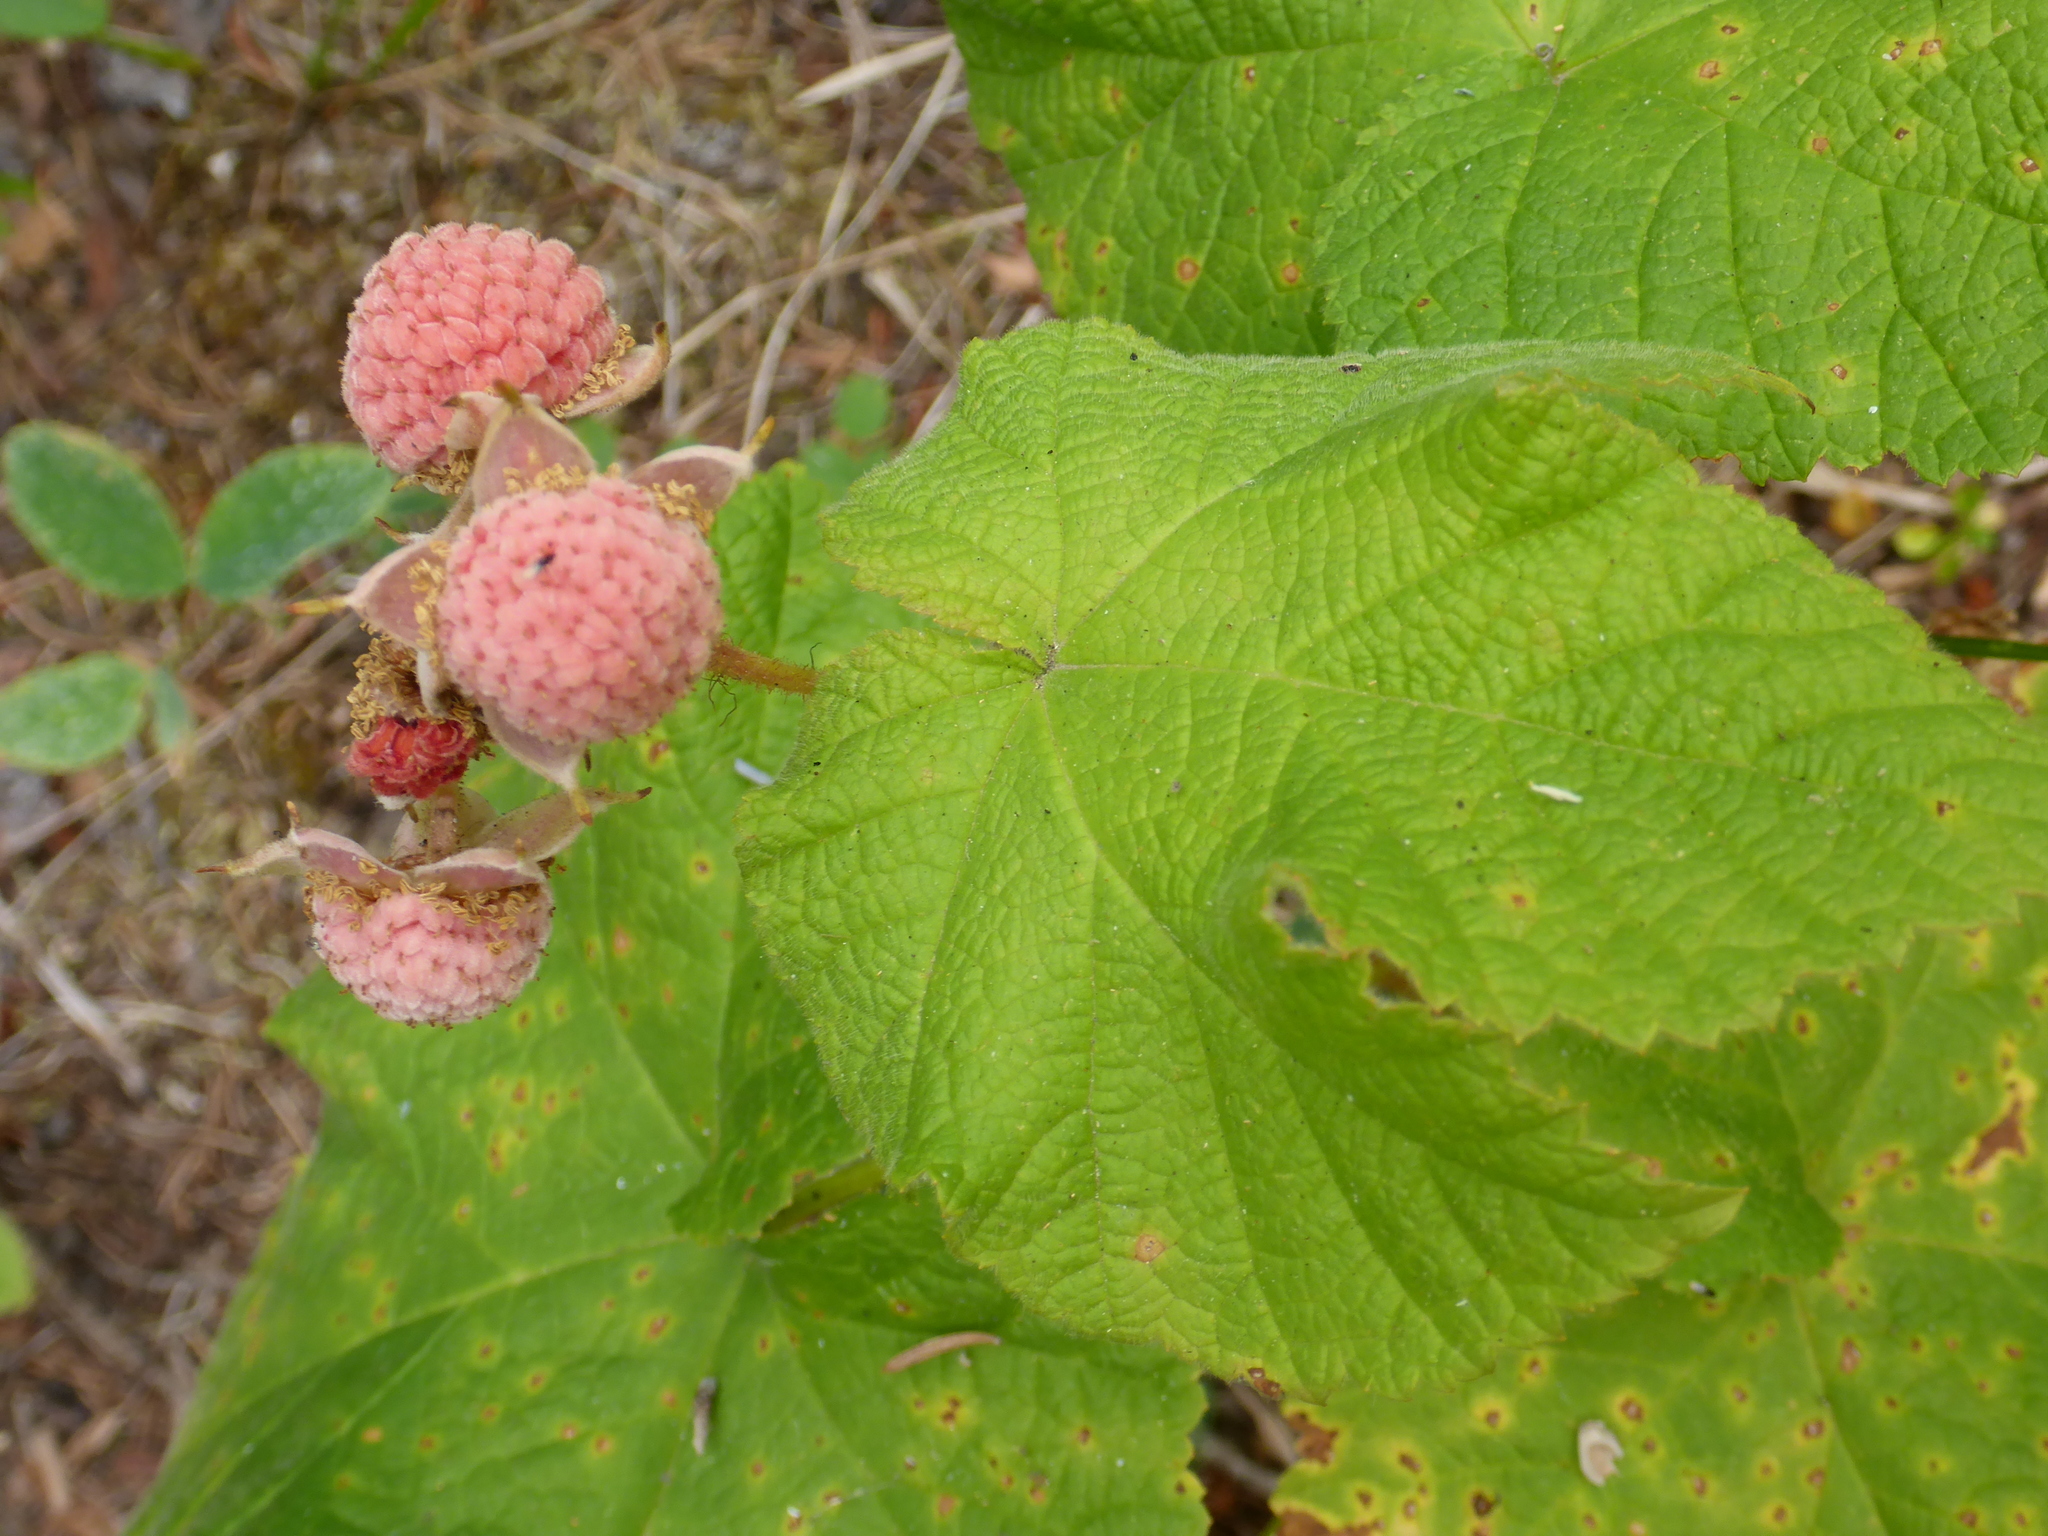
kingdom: Plantae
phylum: Tracheophyta
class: Magnoliopsida
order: Rosales
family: Rosaceae
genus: Rubus
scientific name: Rubus parviflorus
